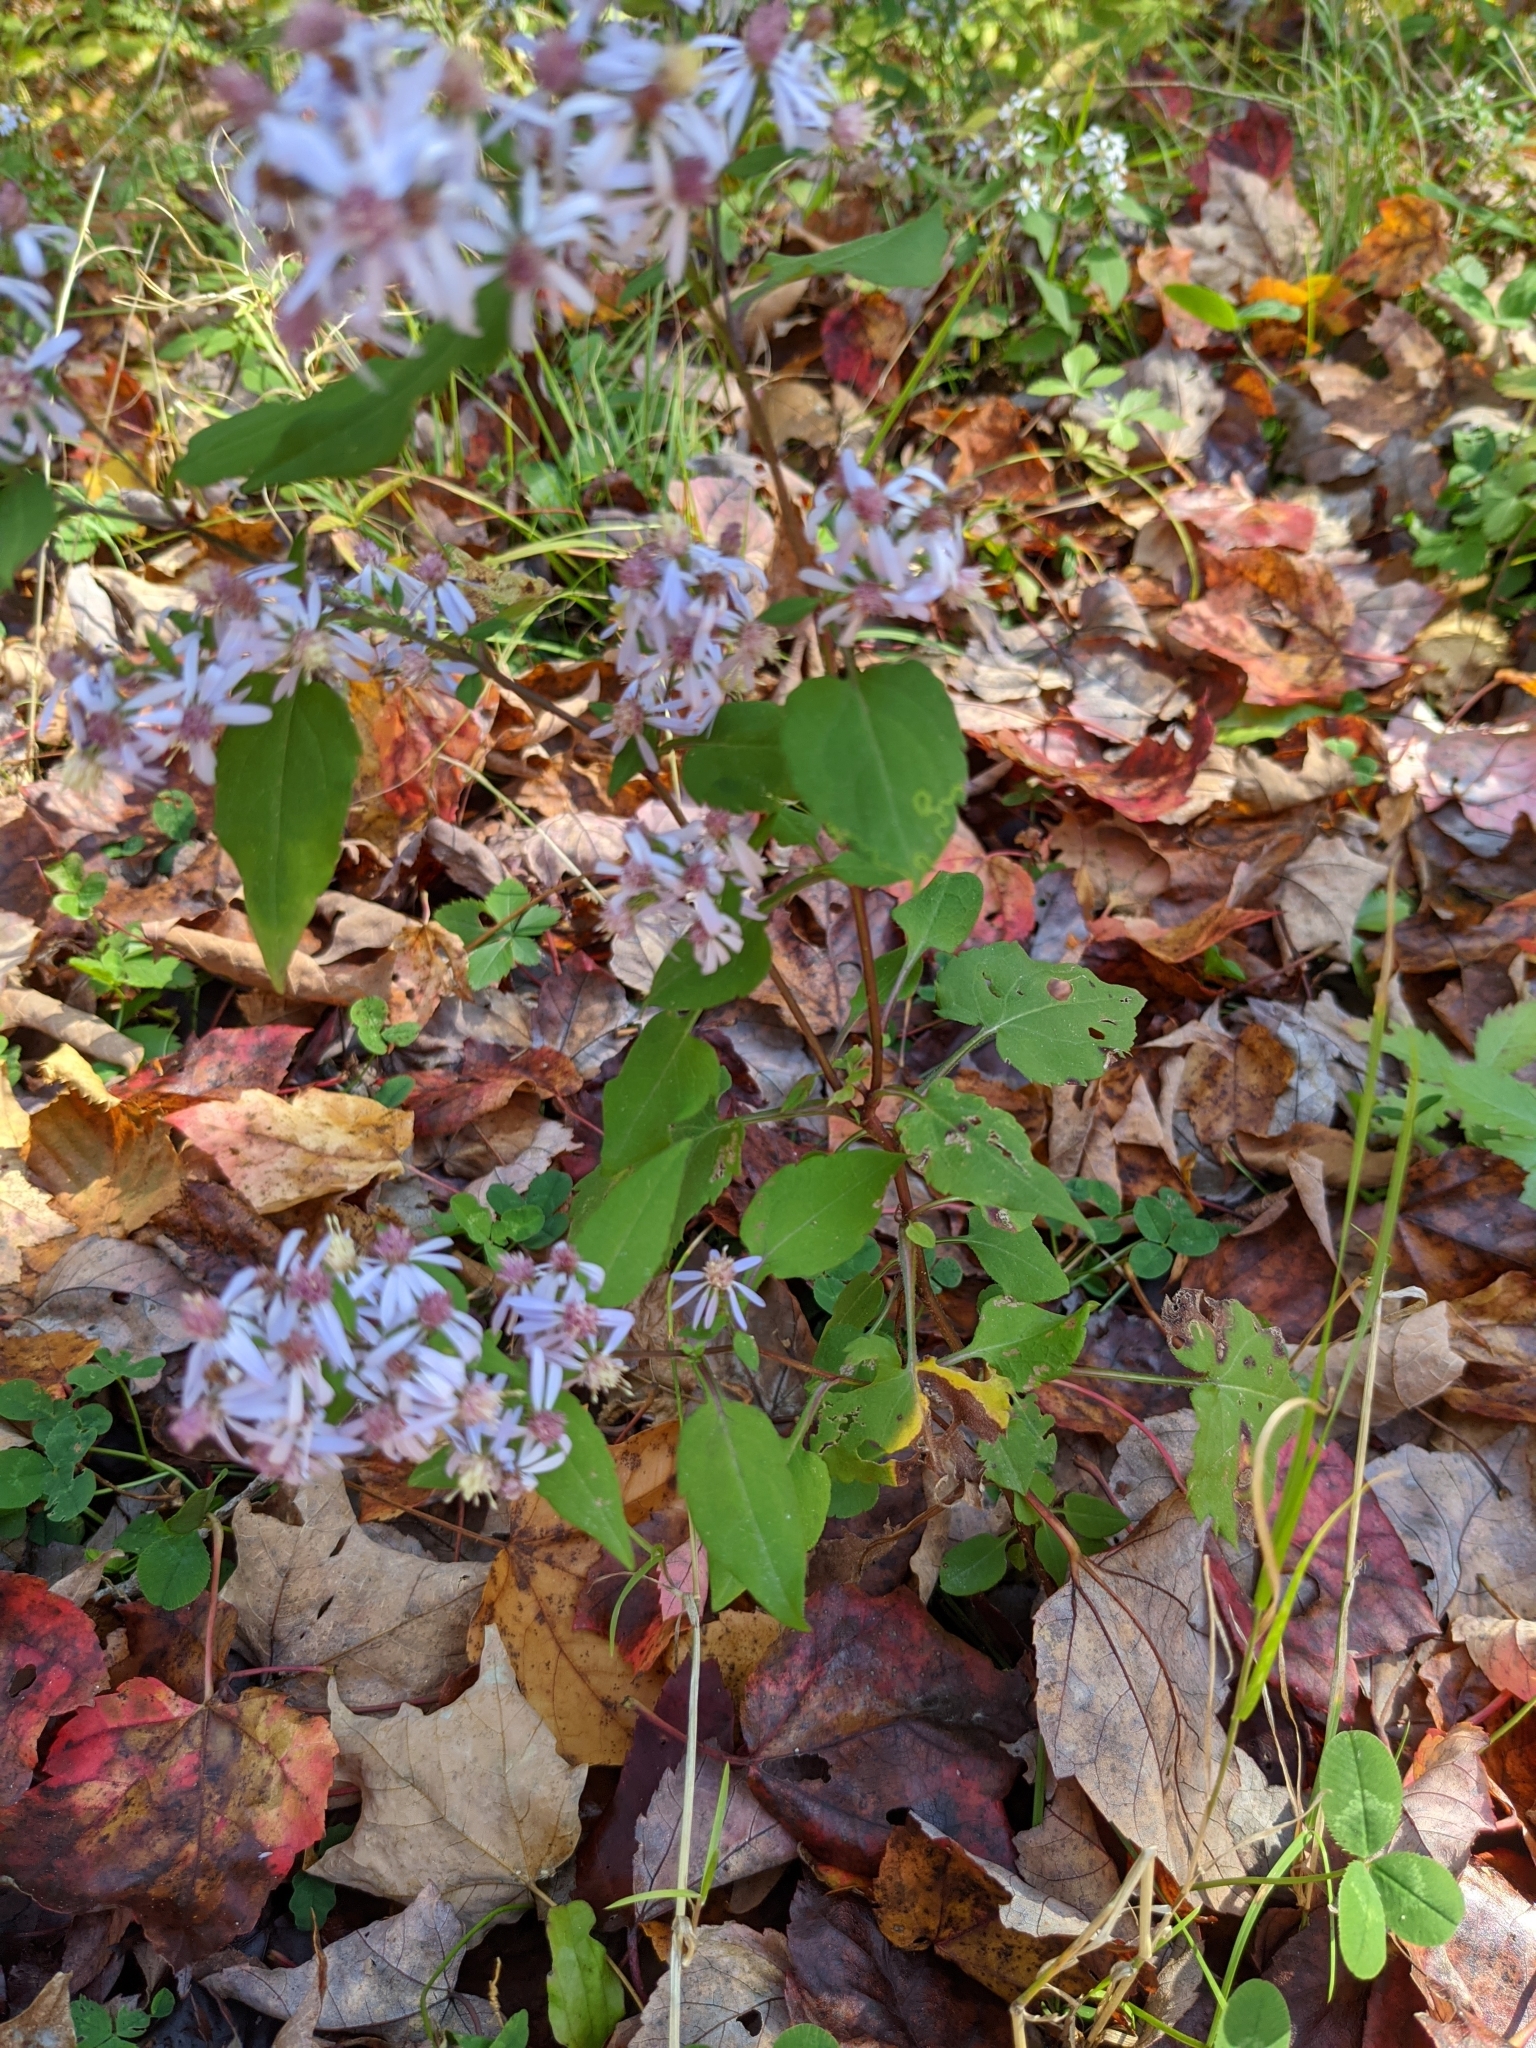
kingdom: Plantae
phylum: Tracheophyta
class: Magnoliopsida
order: Asterales
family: Asteraceae
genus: Symphyotrichum
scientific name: Symphyotrichum cordifolium
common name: Beeweed
